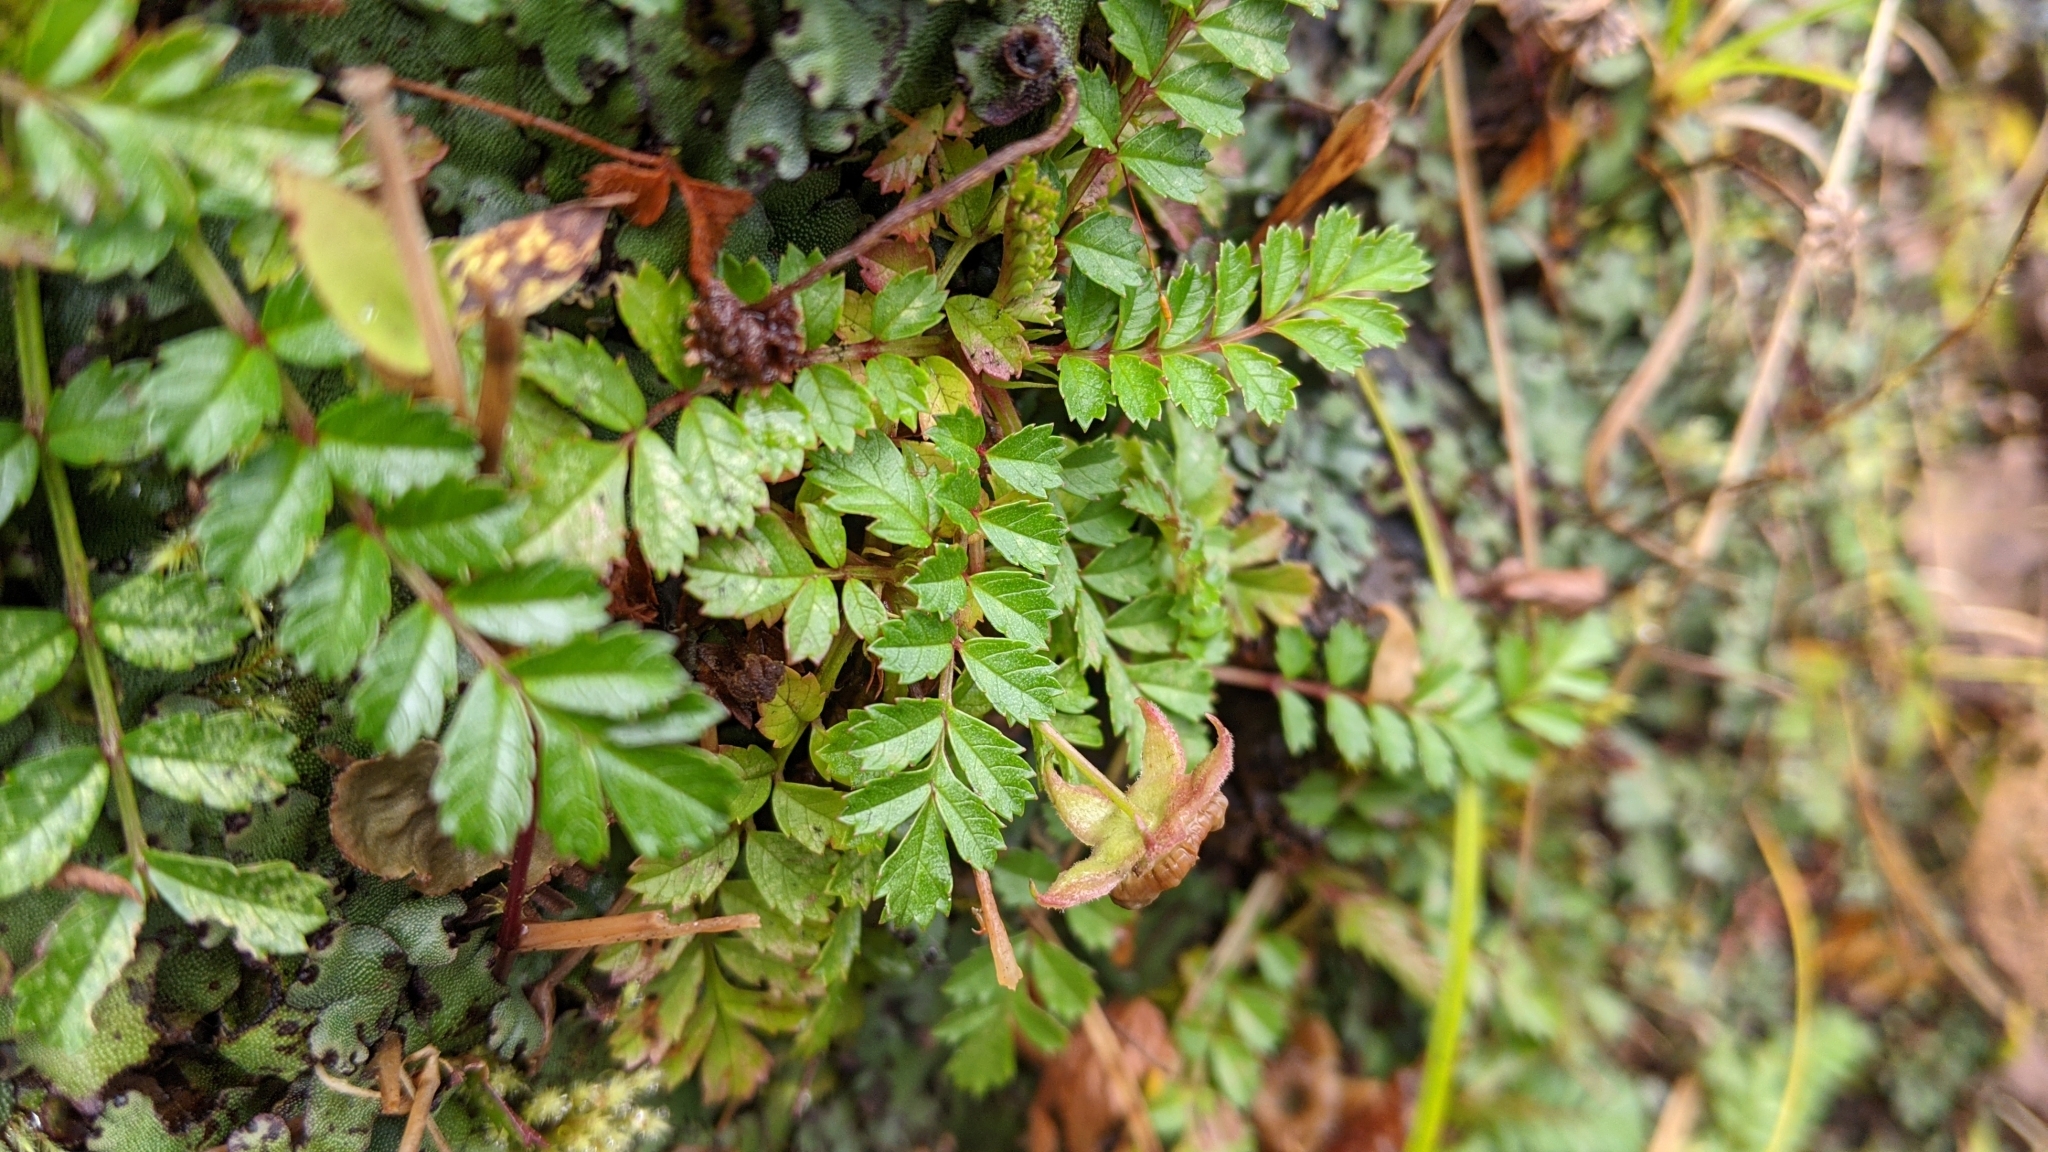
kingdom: Plantae
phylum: Tracheophyta
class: Magnoliopsida
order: Rosales
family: Rosaceae
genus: Rubus
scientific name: Rubus taiwanicola
